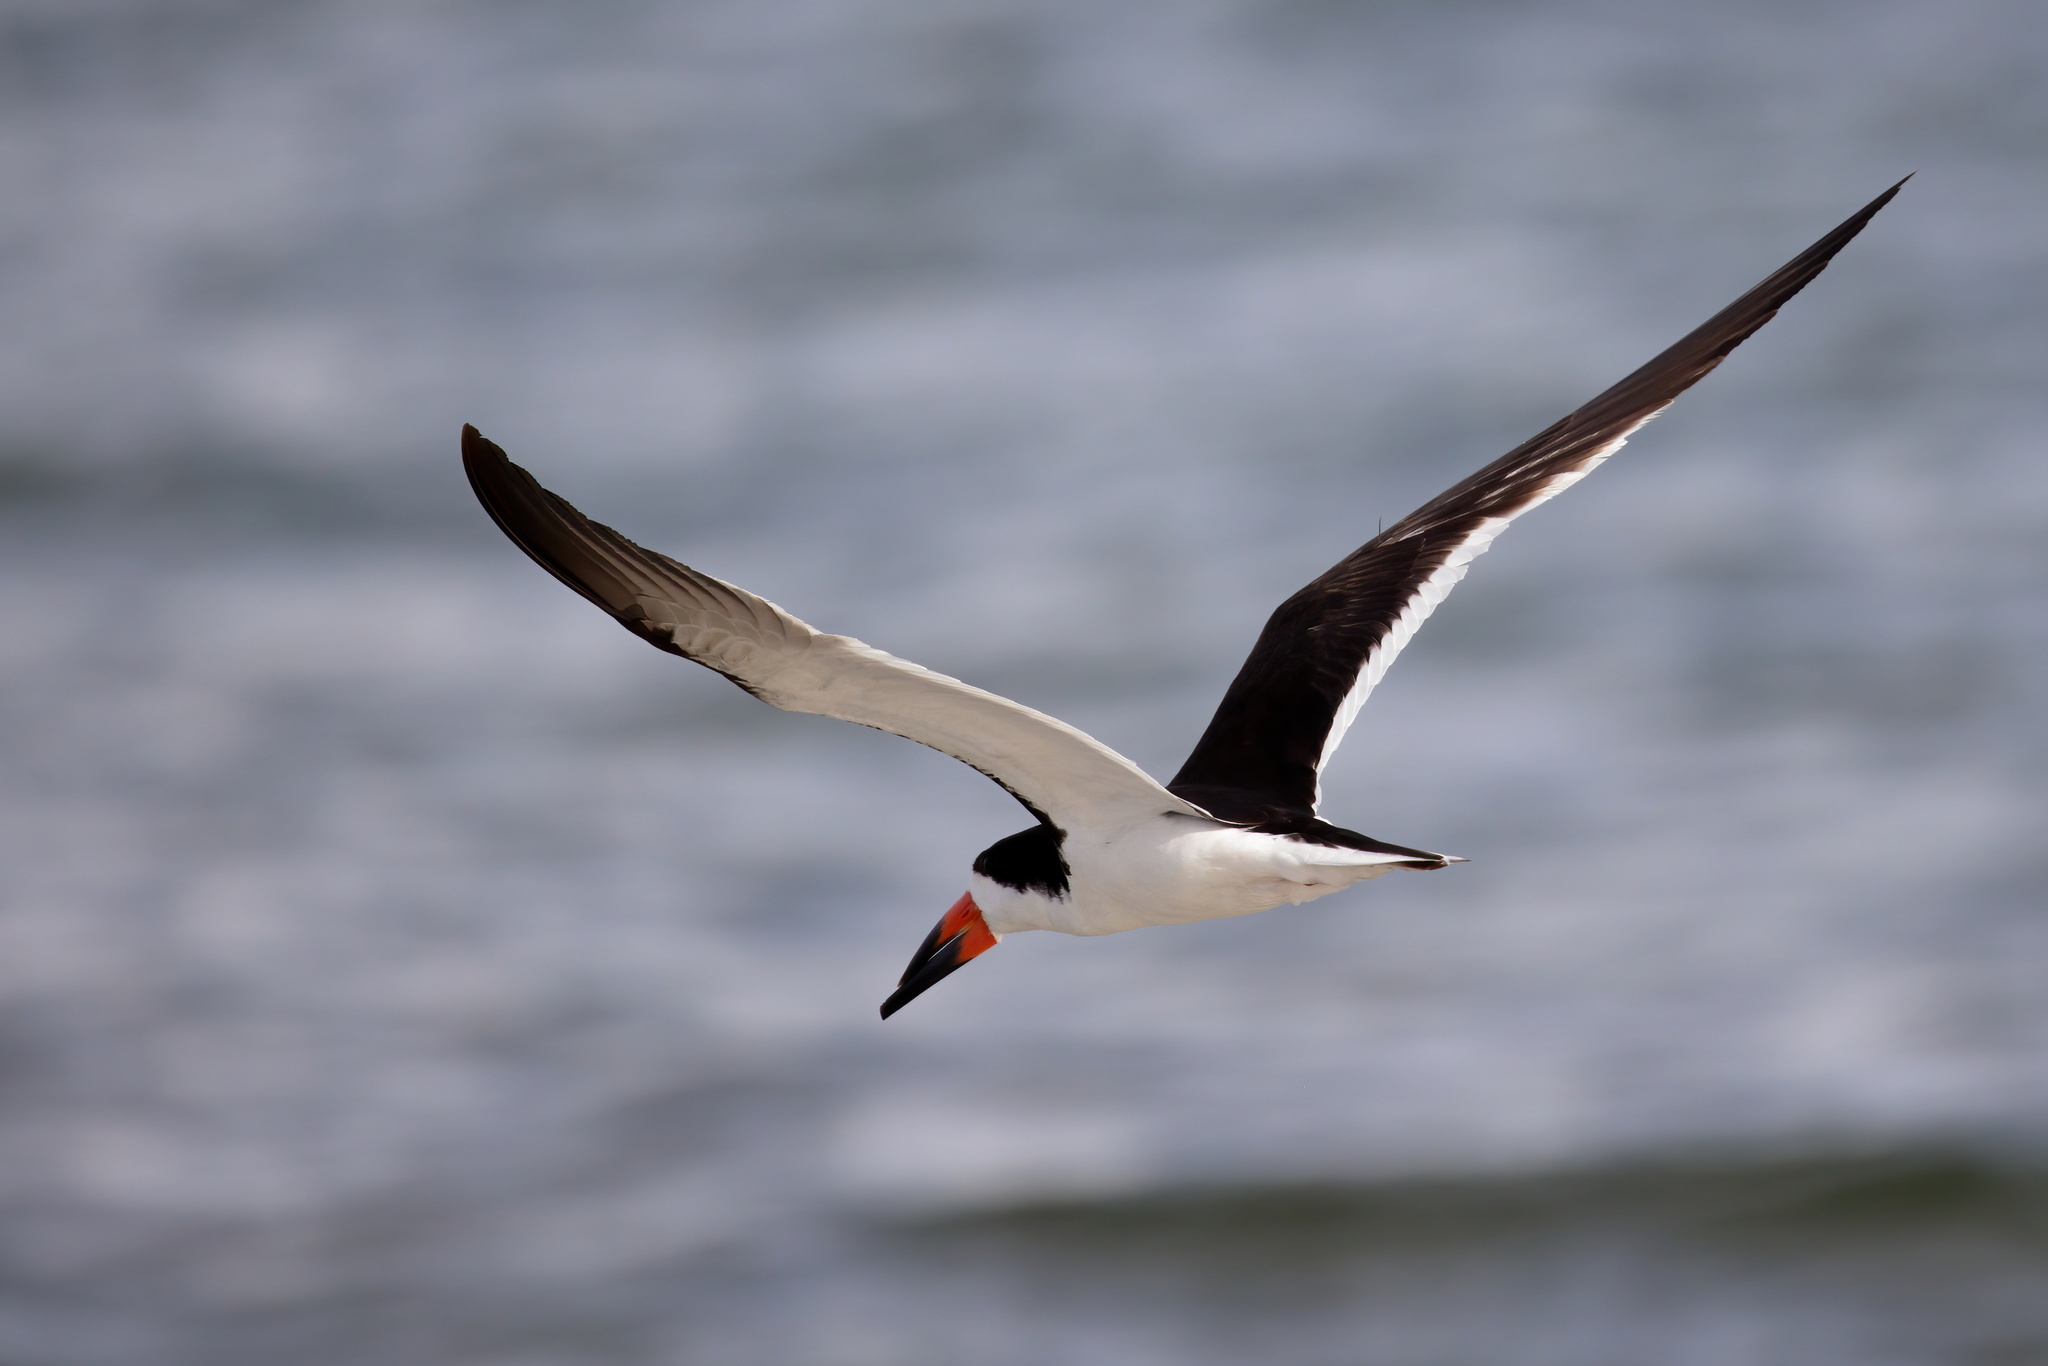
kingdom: Animalia
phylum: Chordata
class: Aves
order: Charadriiformes
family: Laridae
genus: Rynchops
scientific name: Rynchops niger
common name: Black skimmer
